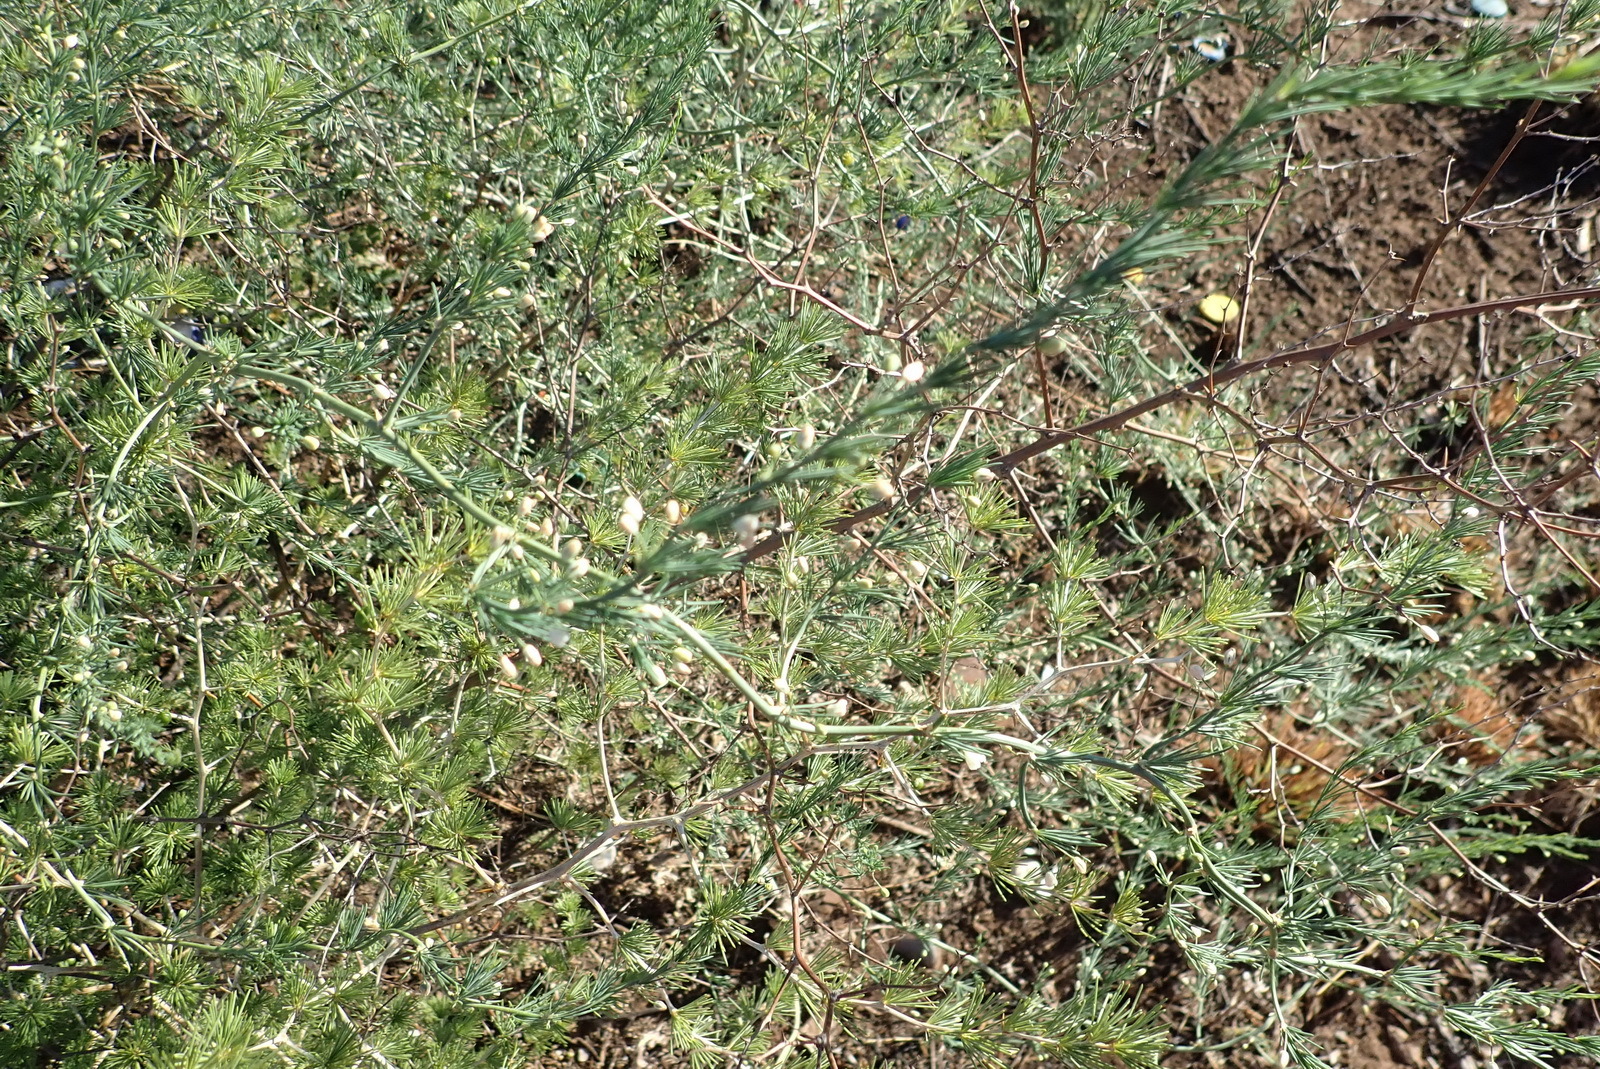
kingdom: Plantae
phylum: Tracheophyta
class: Liliopsida
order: Asparagales
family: Asparagaceae
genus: Asparagus
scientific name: Asparagus laricinus
